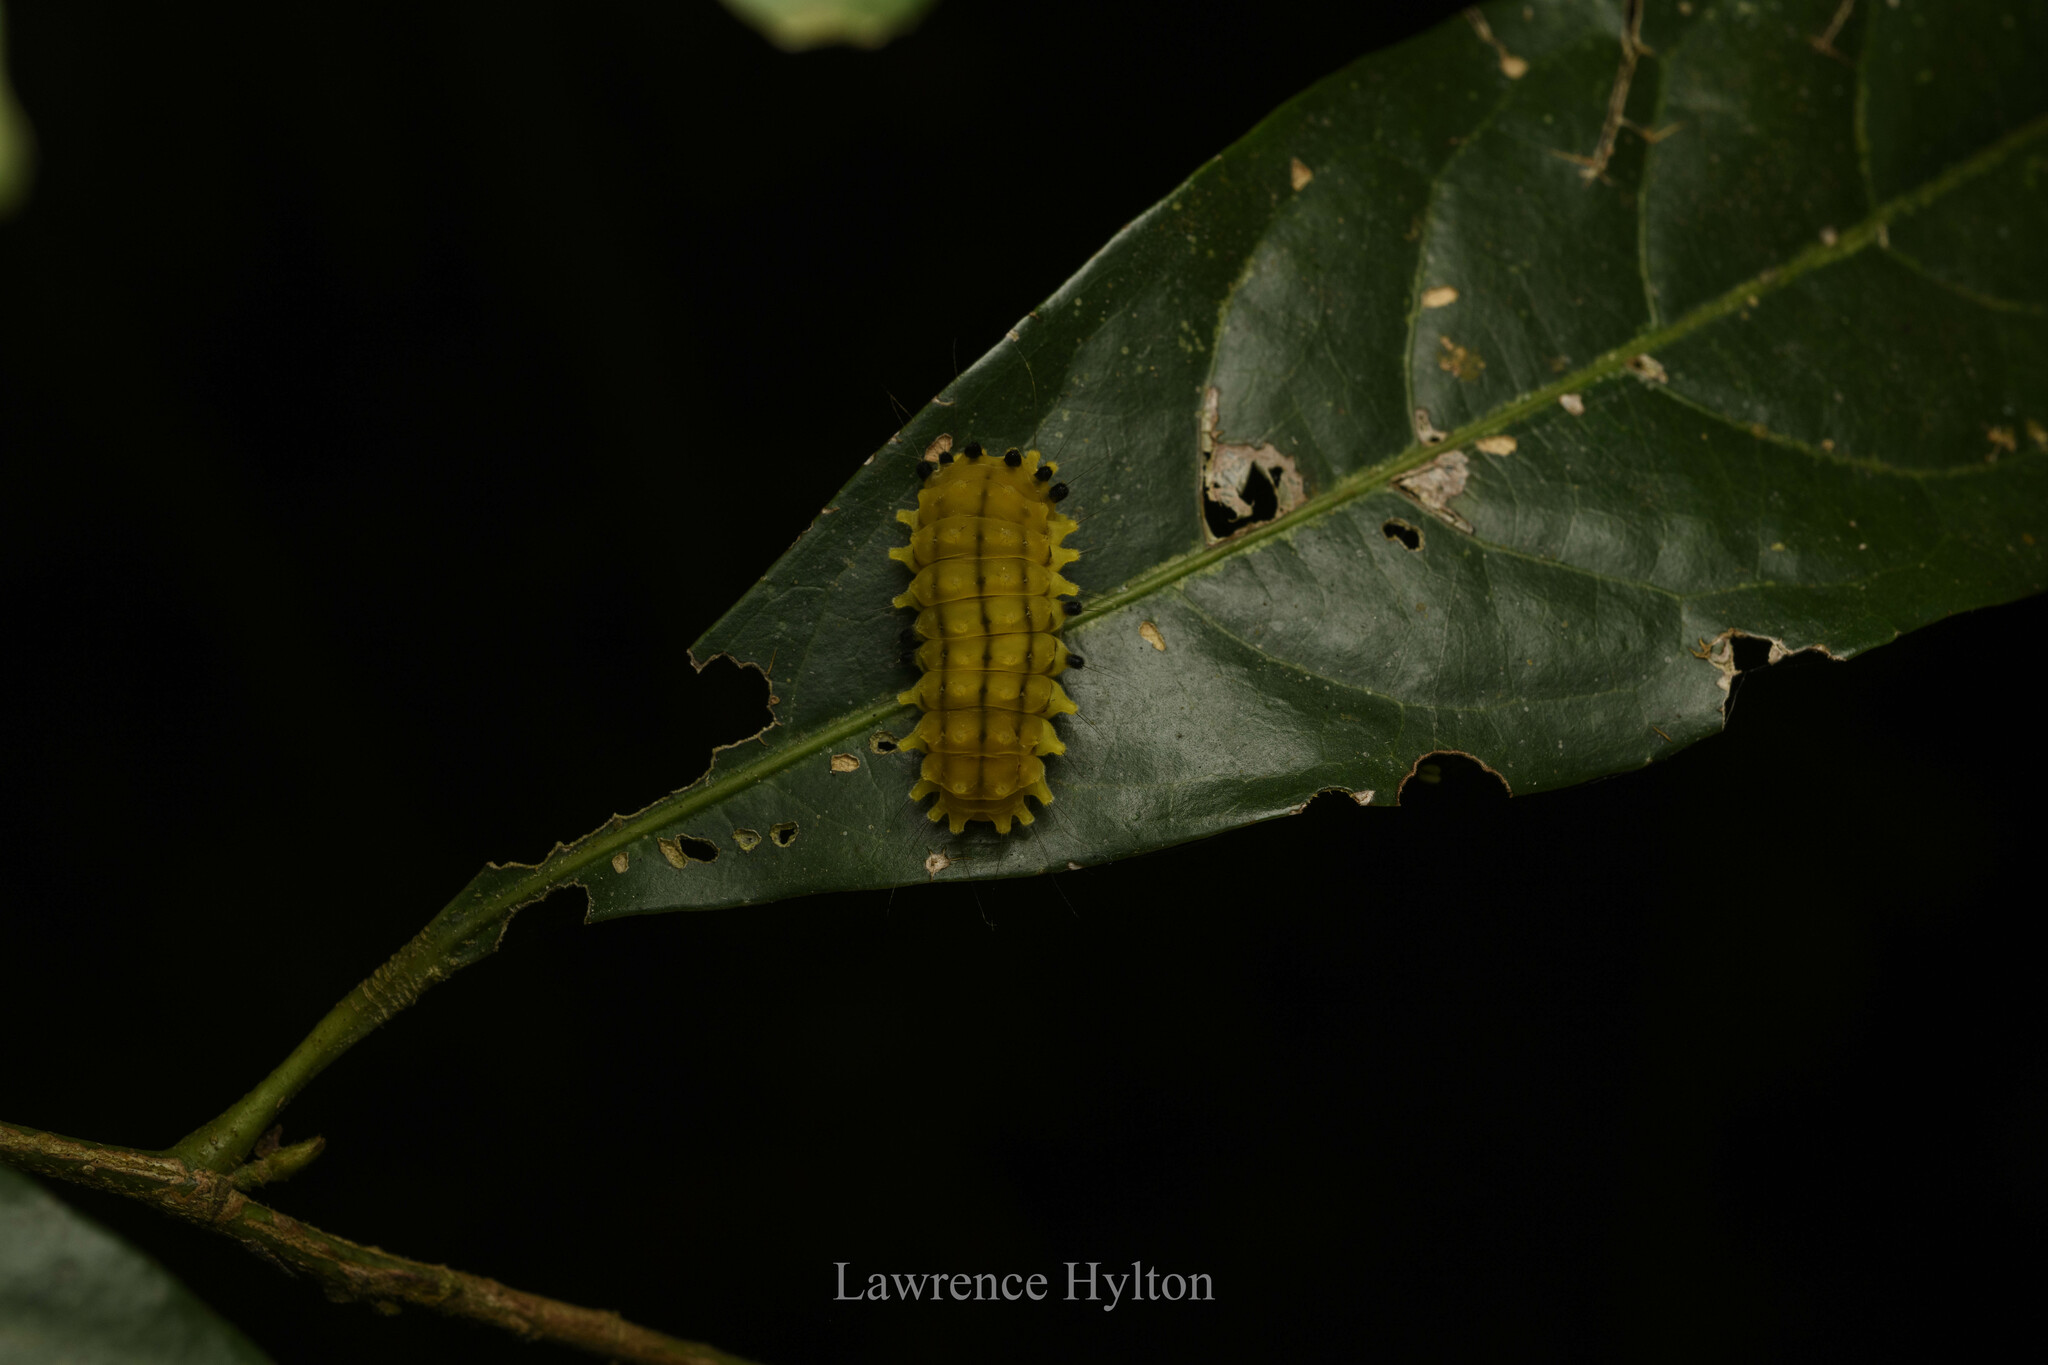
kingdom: Animalia
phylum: Arthropoda
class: Insecta
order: Lepidoptera
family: Zygaenidae
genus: Chalcosia
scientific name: Chalcosia suffusa
